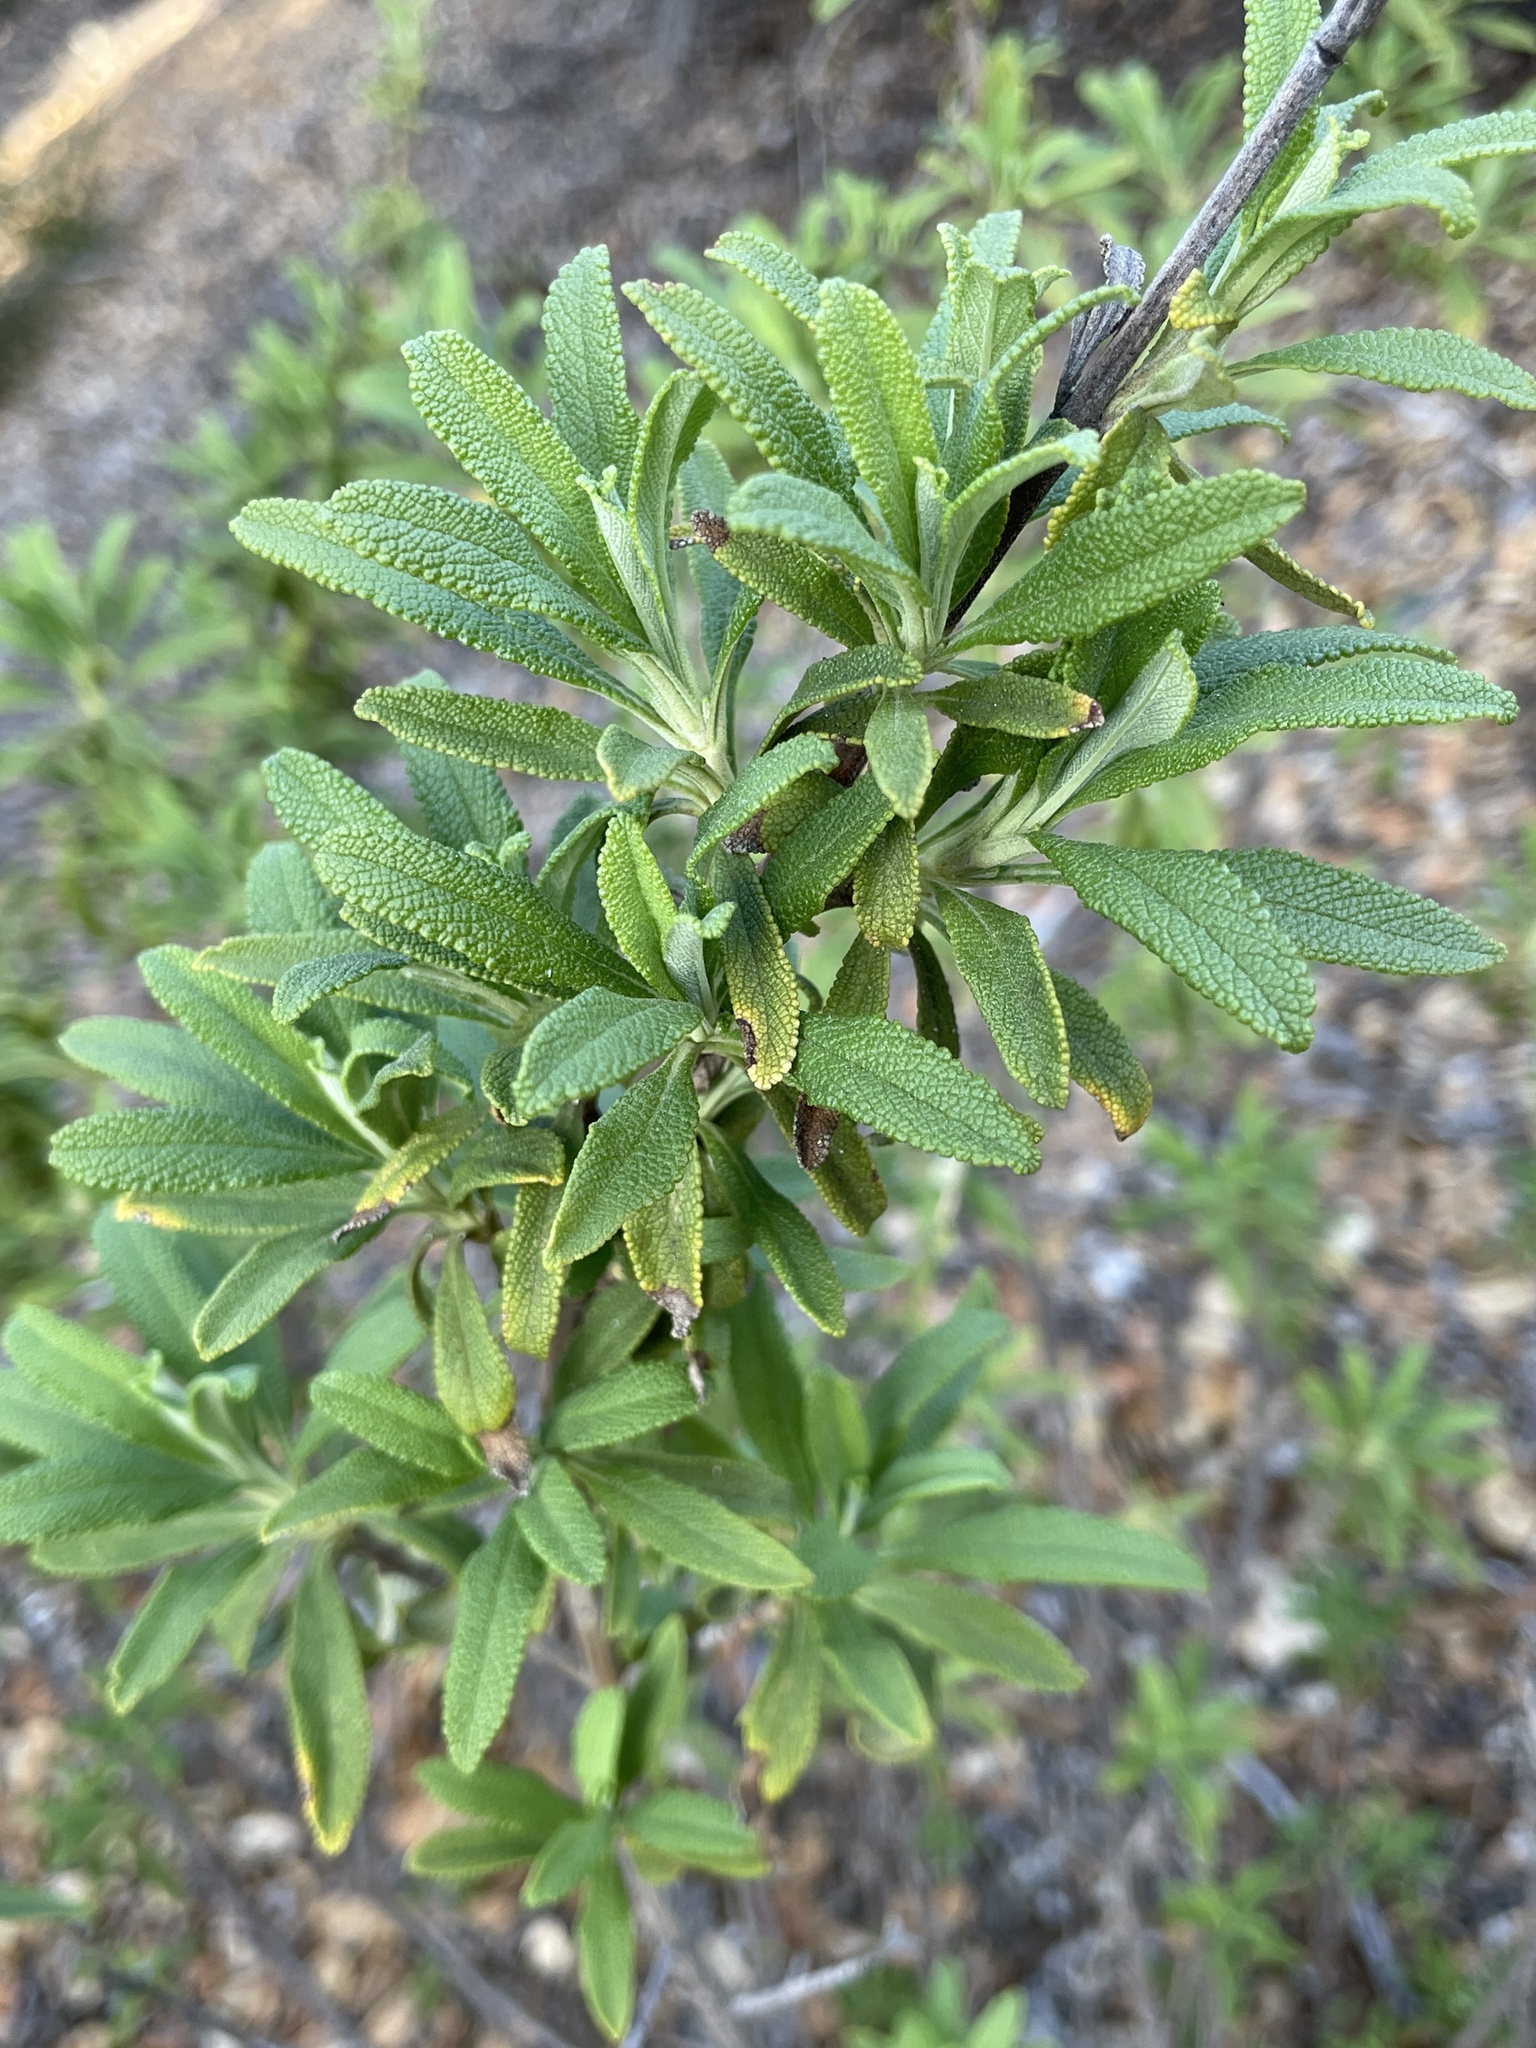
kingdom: Plantae
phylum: Tracheophyta
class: Magnoliopsida
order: Lamiales
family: Lamiaceae
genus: Salvia
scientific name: Salvia mellifera
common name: Black sage
